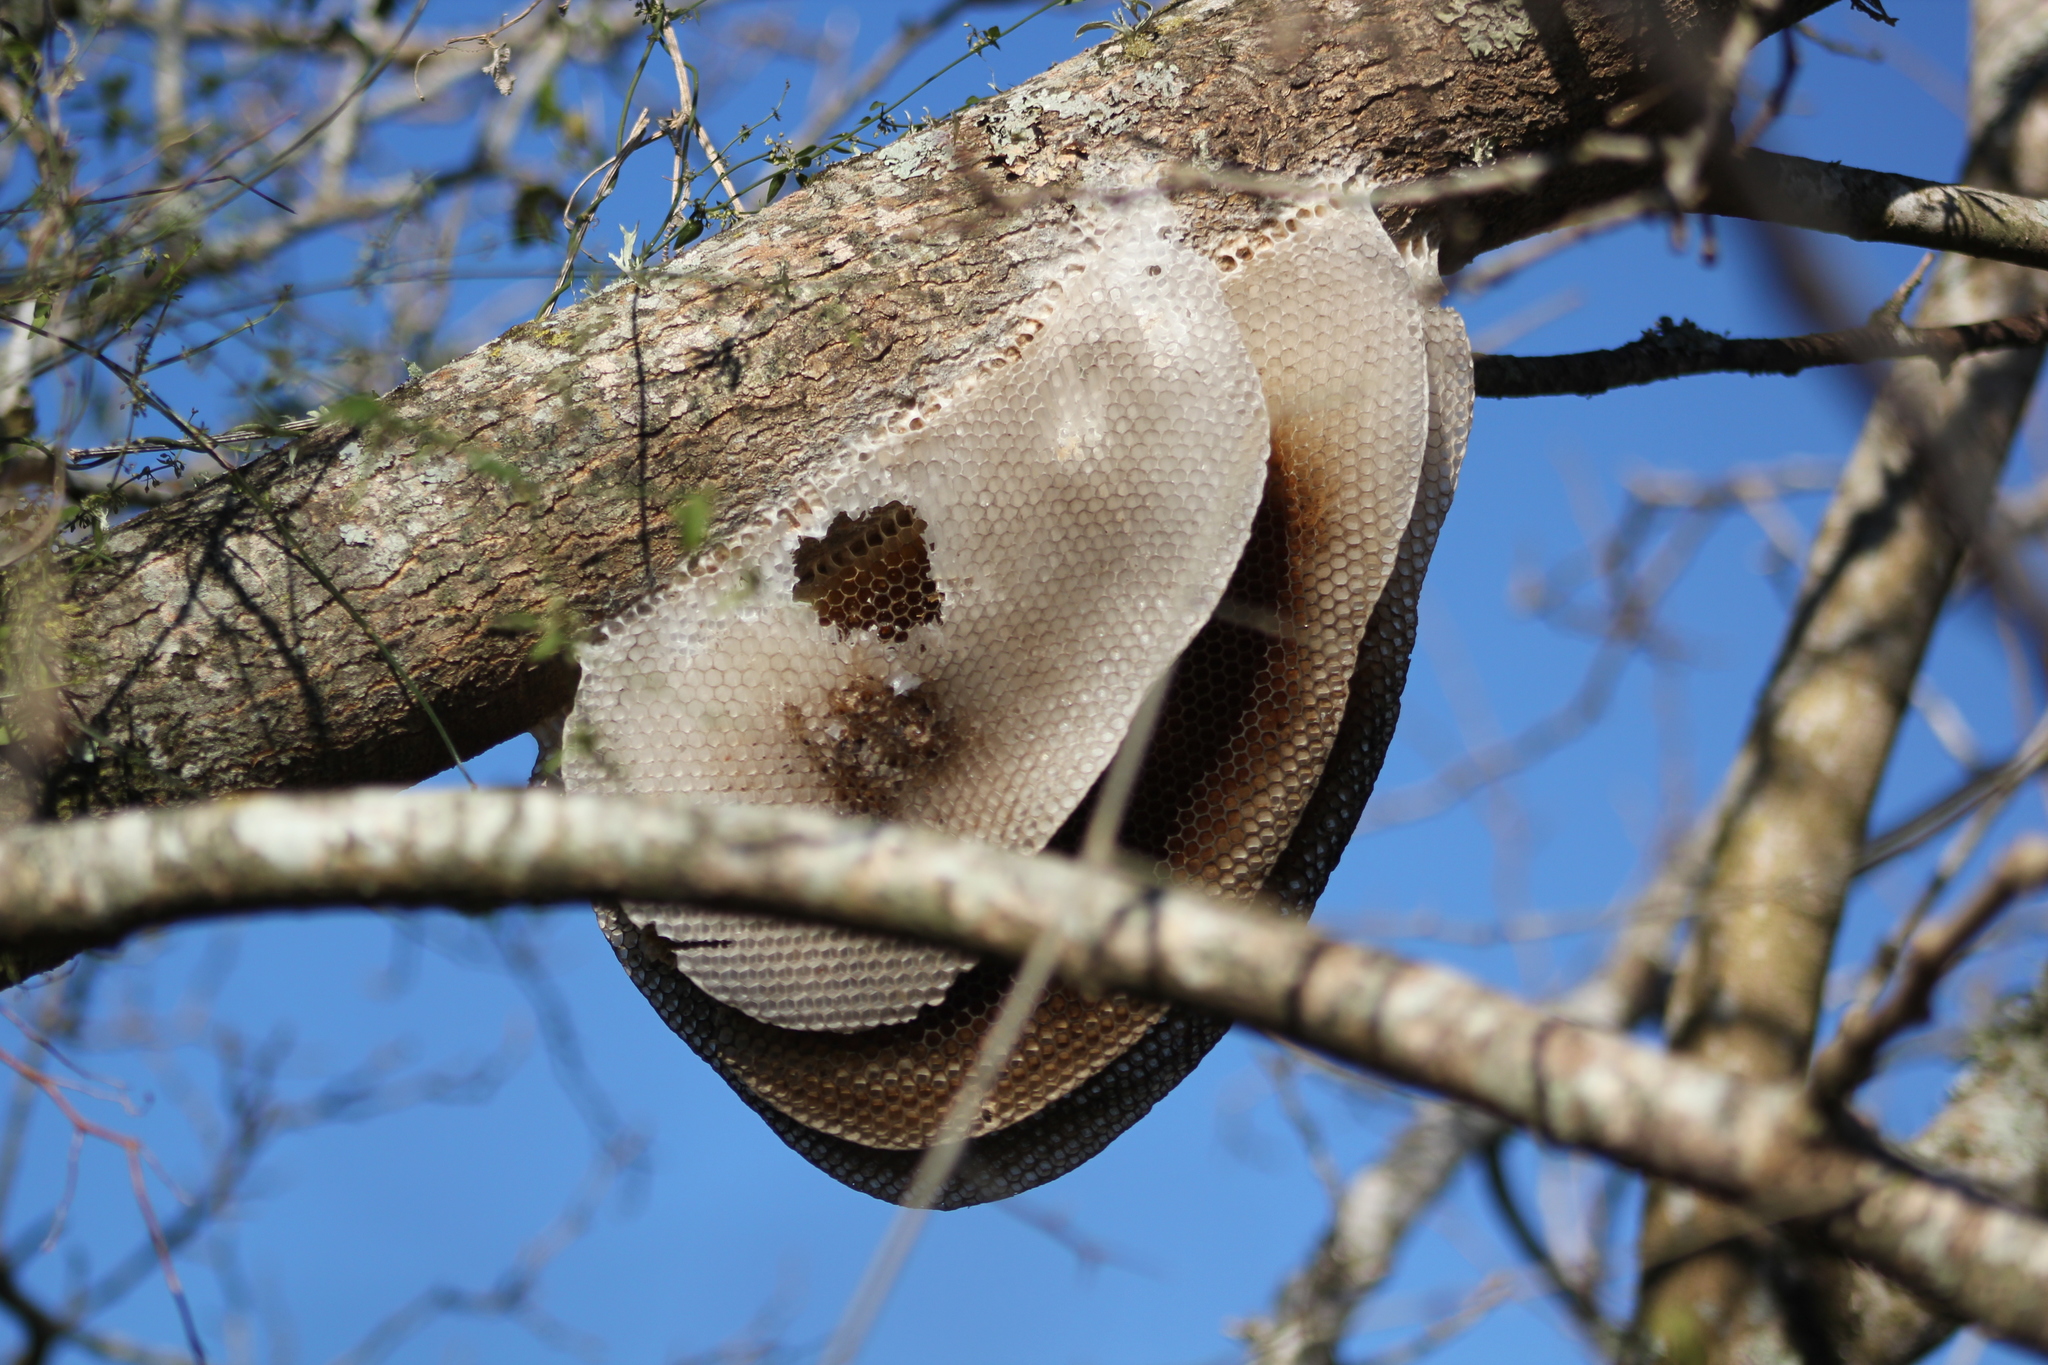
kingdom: Animalia
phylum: Arthropoda
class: Insecta
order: Hymenoptera
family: Apidae
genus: Apis
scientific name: Apis mellifera
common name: Honey bee
